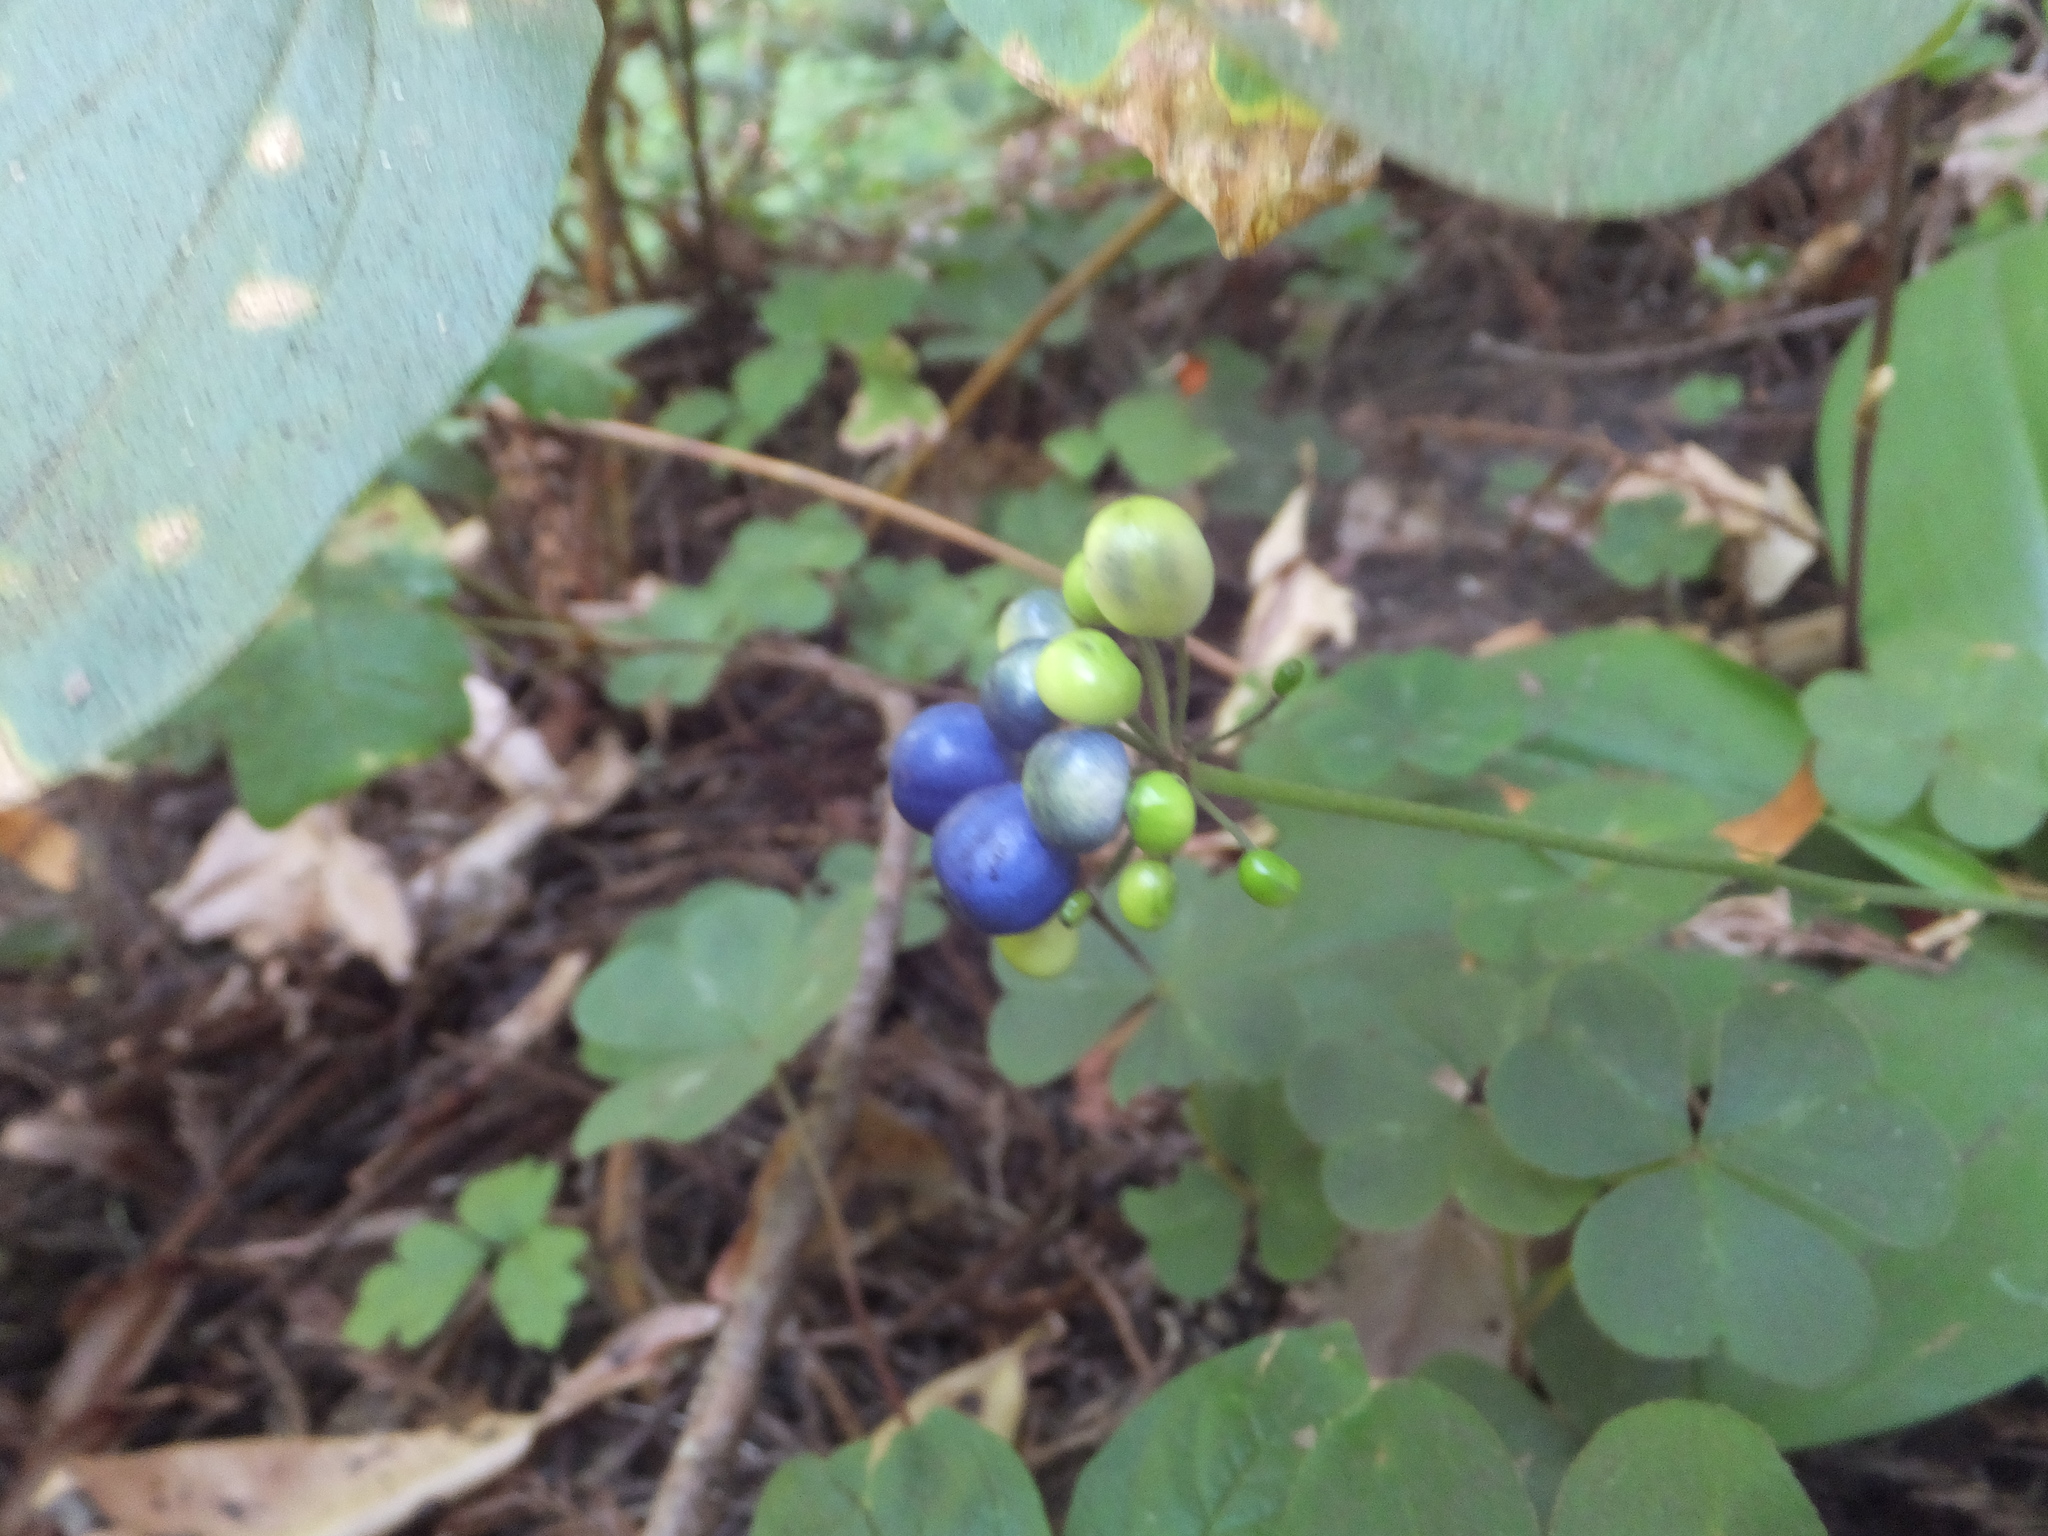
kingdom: Plantae
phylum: Tracheophyta
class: Liliopsida
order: Liliales
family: Liliaceae
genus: Clintonia
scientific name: Clintonia andrewsiana
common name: Red clintonia
